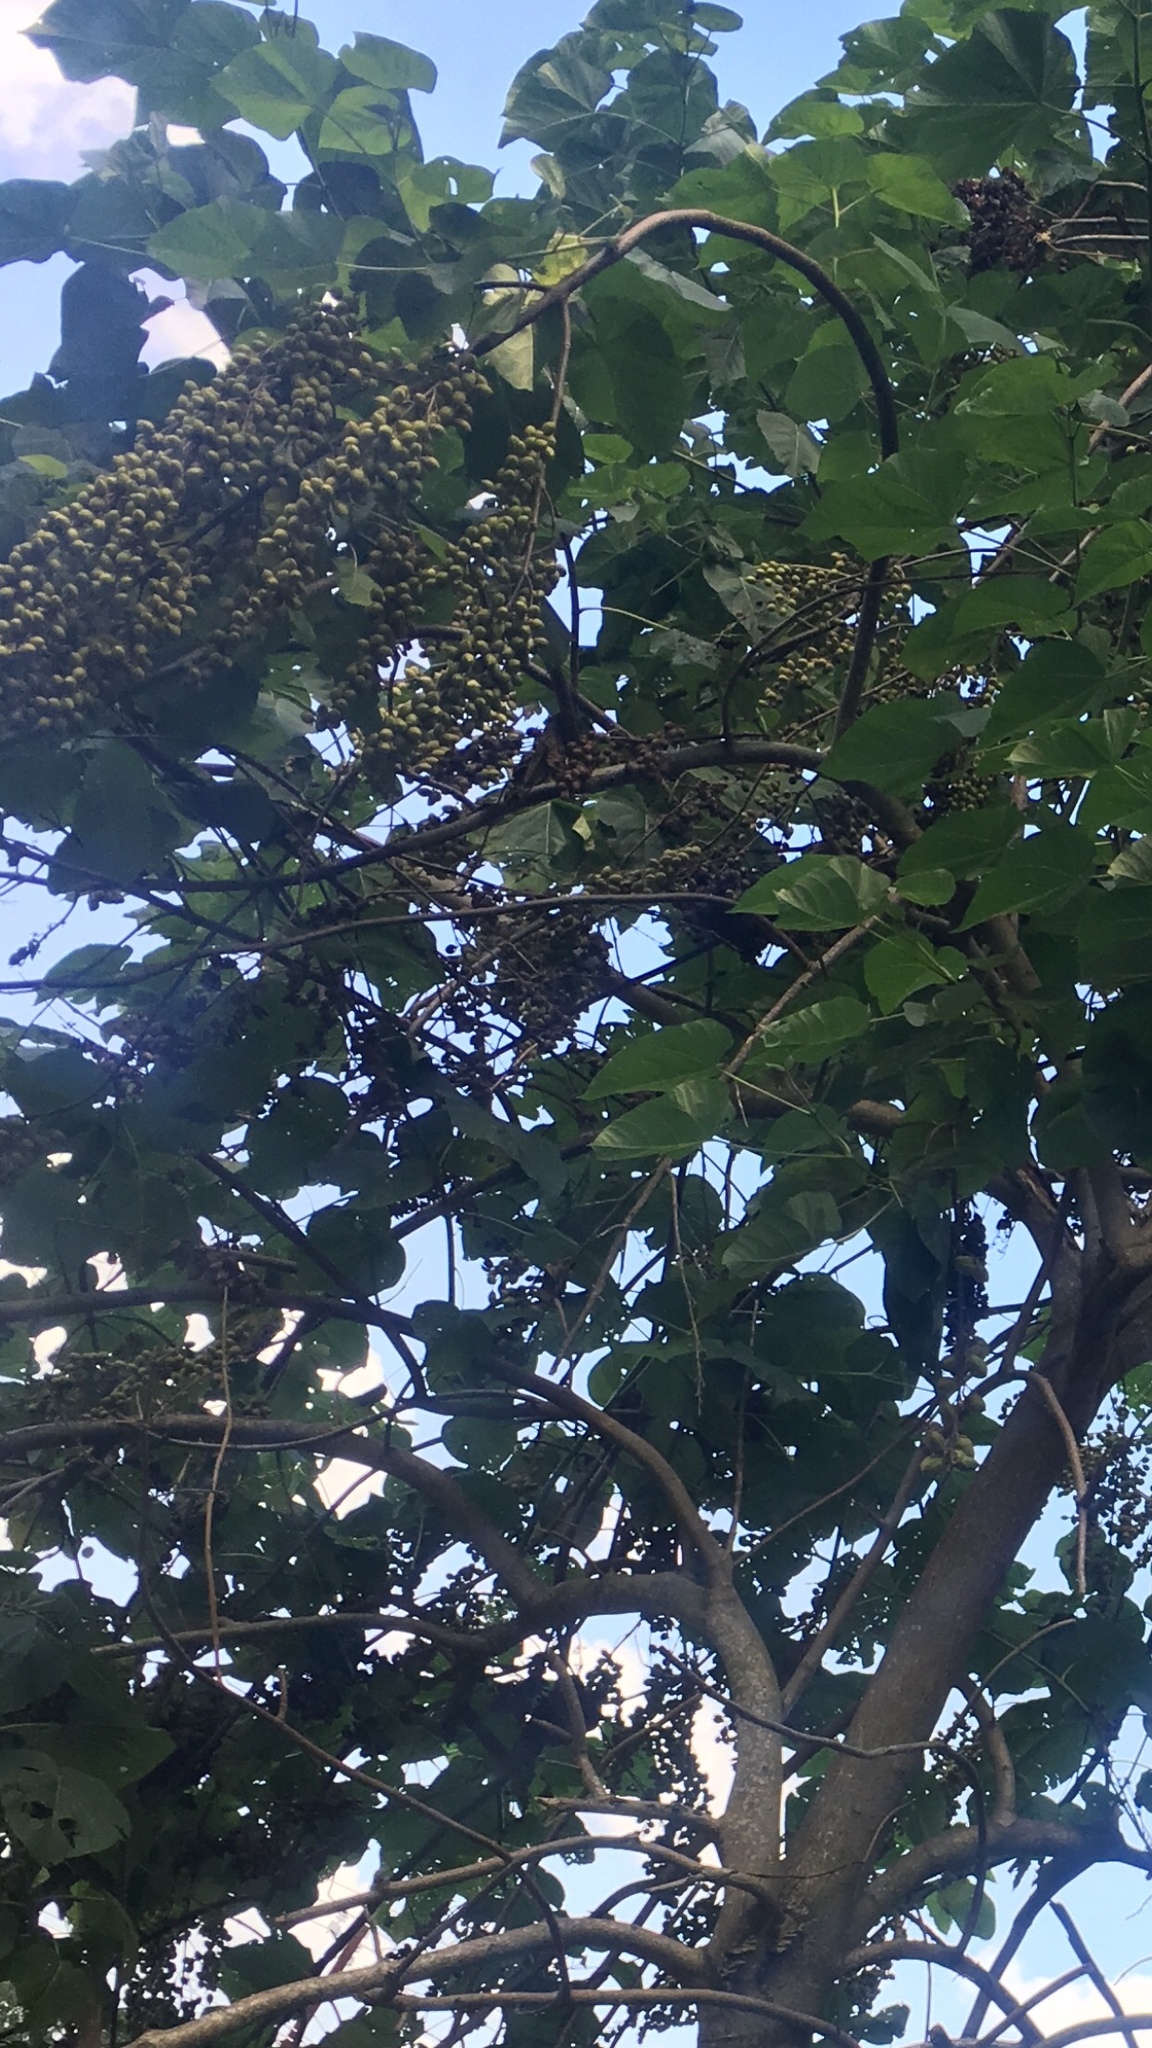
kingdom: Plantae
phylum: Tracheophyta
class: Magnoliopsida
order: Lamiales
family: Paulowniaceae
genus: Paulownia
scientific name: Paulownia tomentosa
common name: Foxglove-tree
